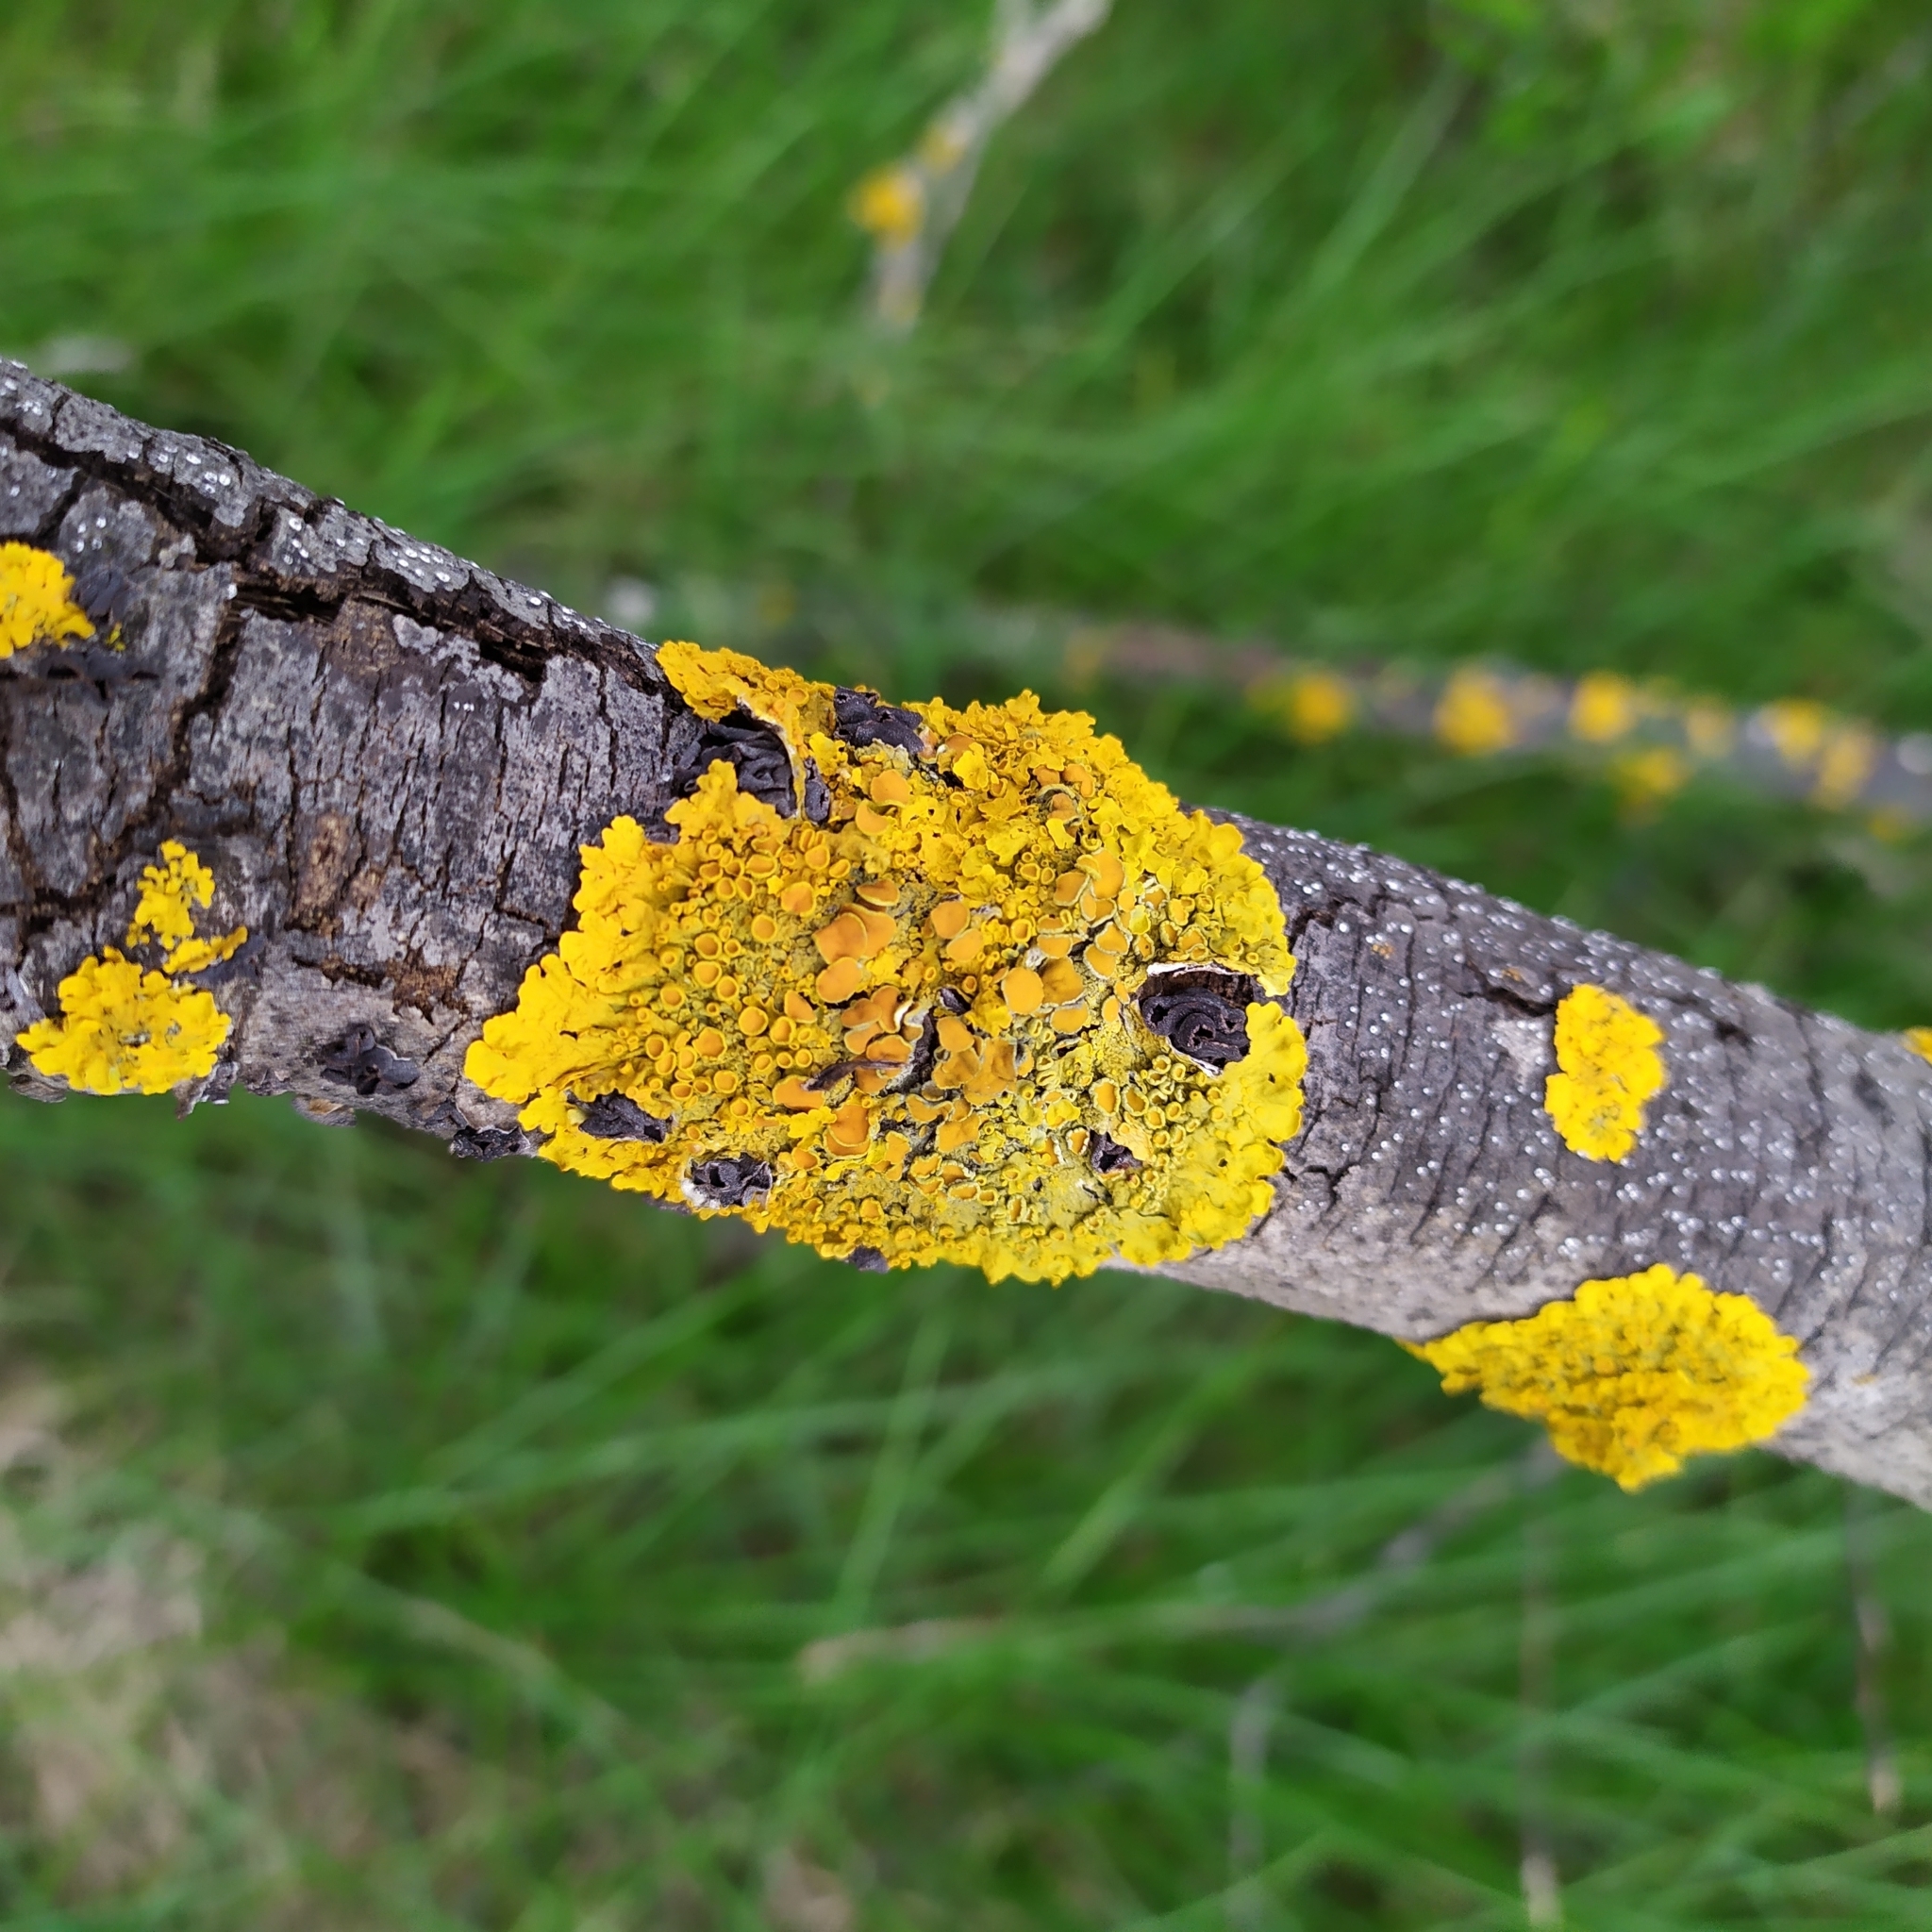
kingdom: Fungi
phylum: Ascomycota
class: Lecanoromycetes
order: Teloschistales
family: Teloschistaceae
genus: Xanthoria
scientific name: Xanthoria parietina
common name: Common orange lichen
